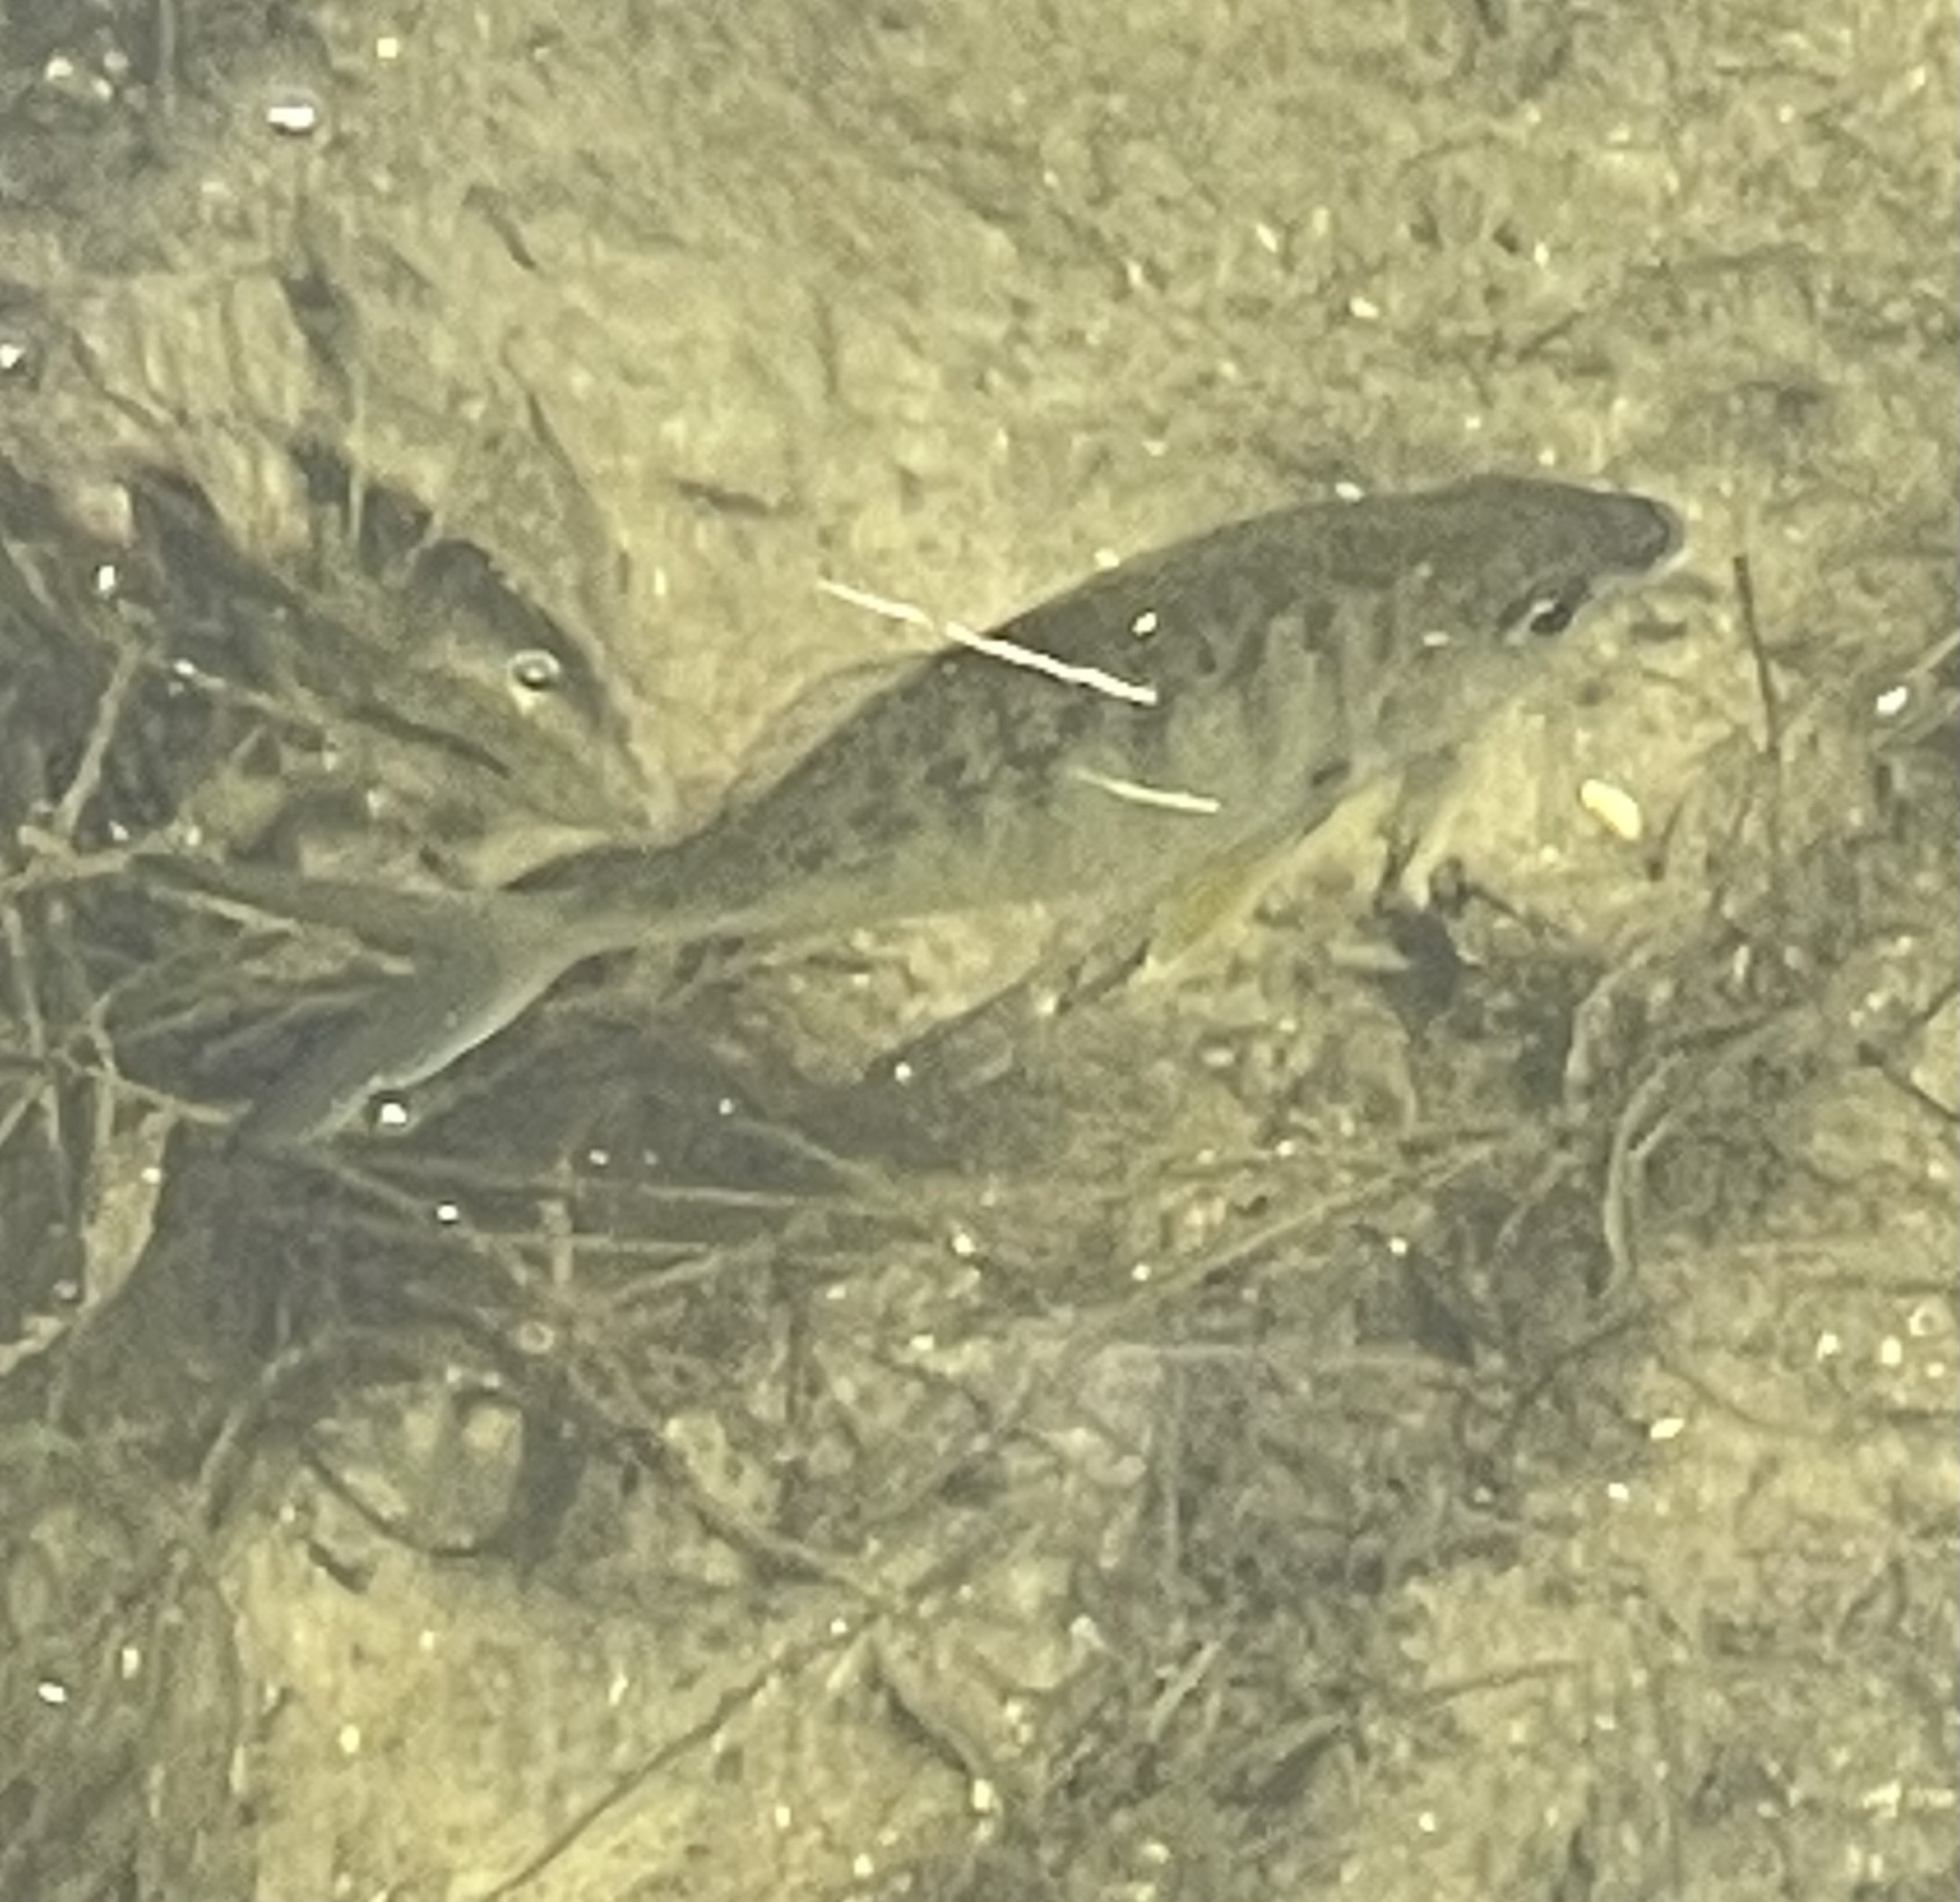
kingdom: Animalia
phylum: Chordata
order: Perciformes
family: Gerreidae
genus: Gerres
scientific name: Gerres cinereus
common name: Hedow
